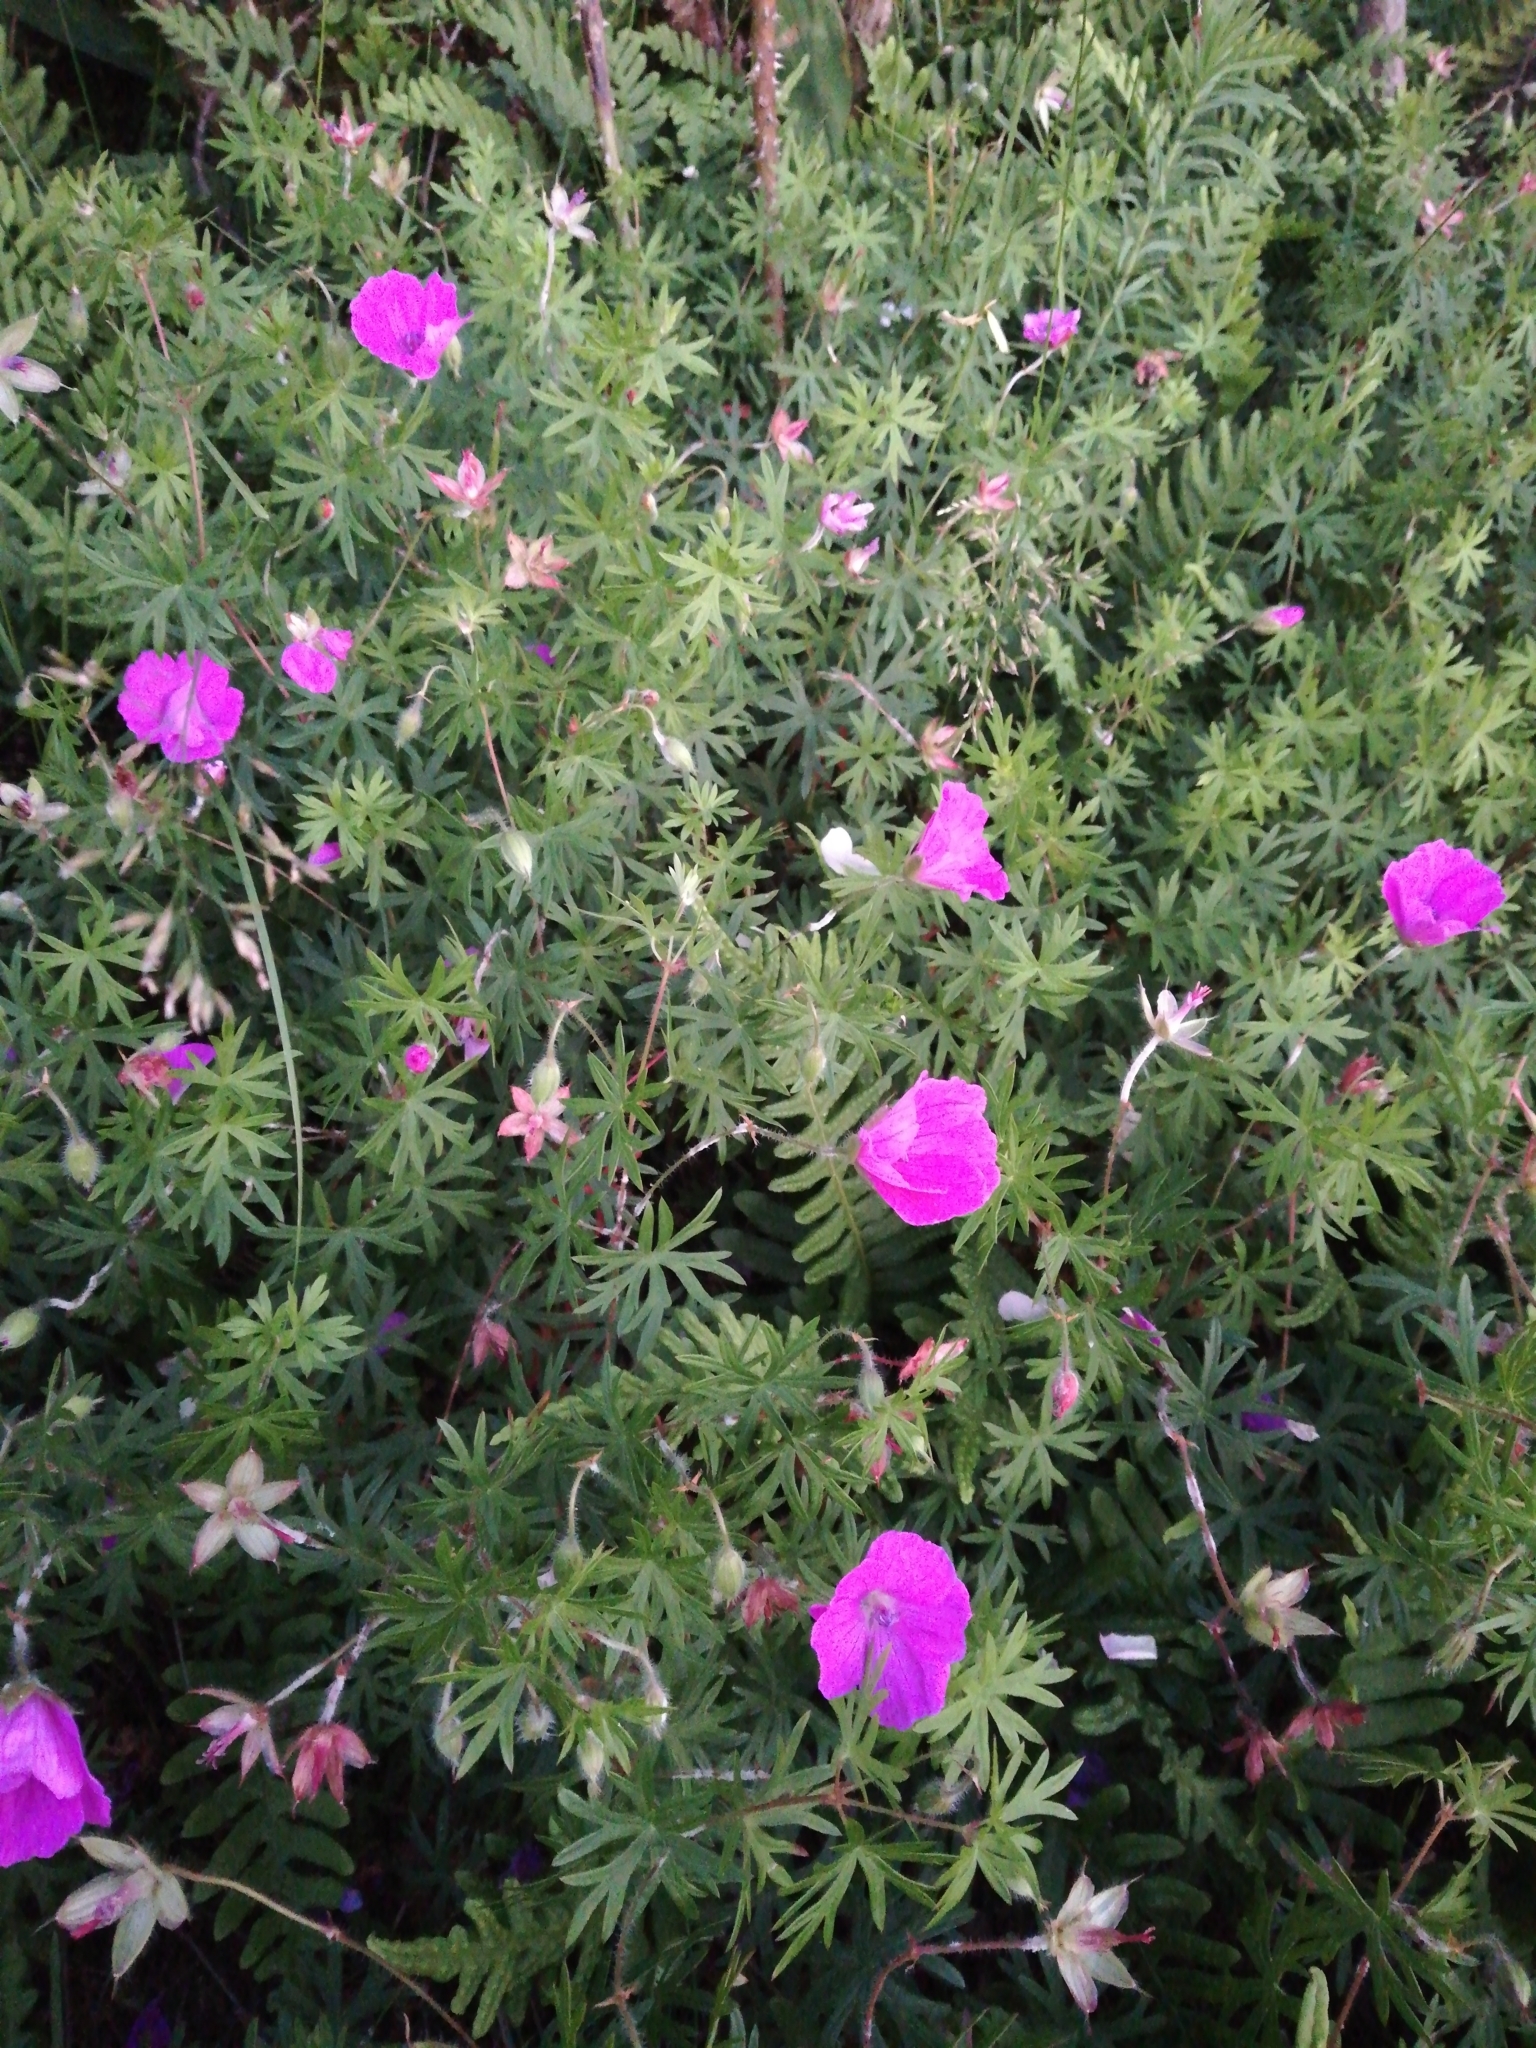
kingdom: Plantae
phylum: Tracheophyta
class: Magnoliopsida
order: Geraniales
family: Geraniaceae
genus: Geranium
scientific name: Geranium sanguineum
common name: Bloody crane's-bill
